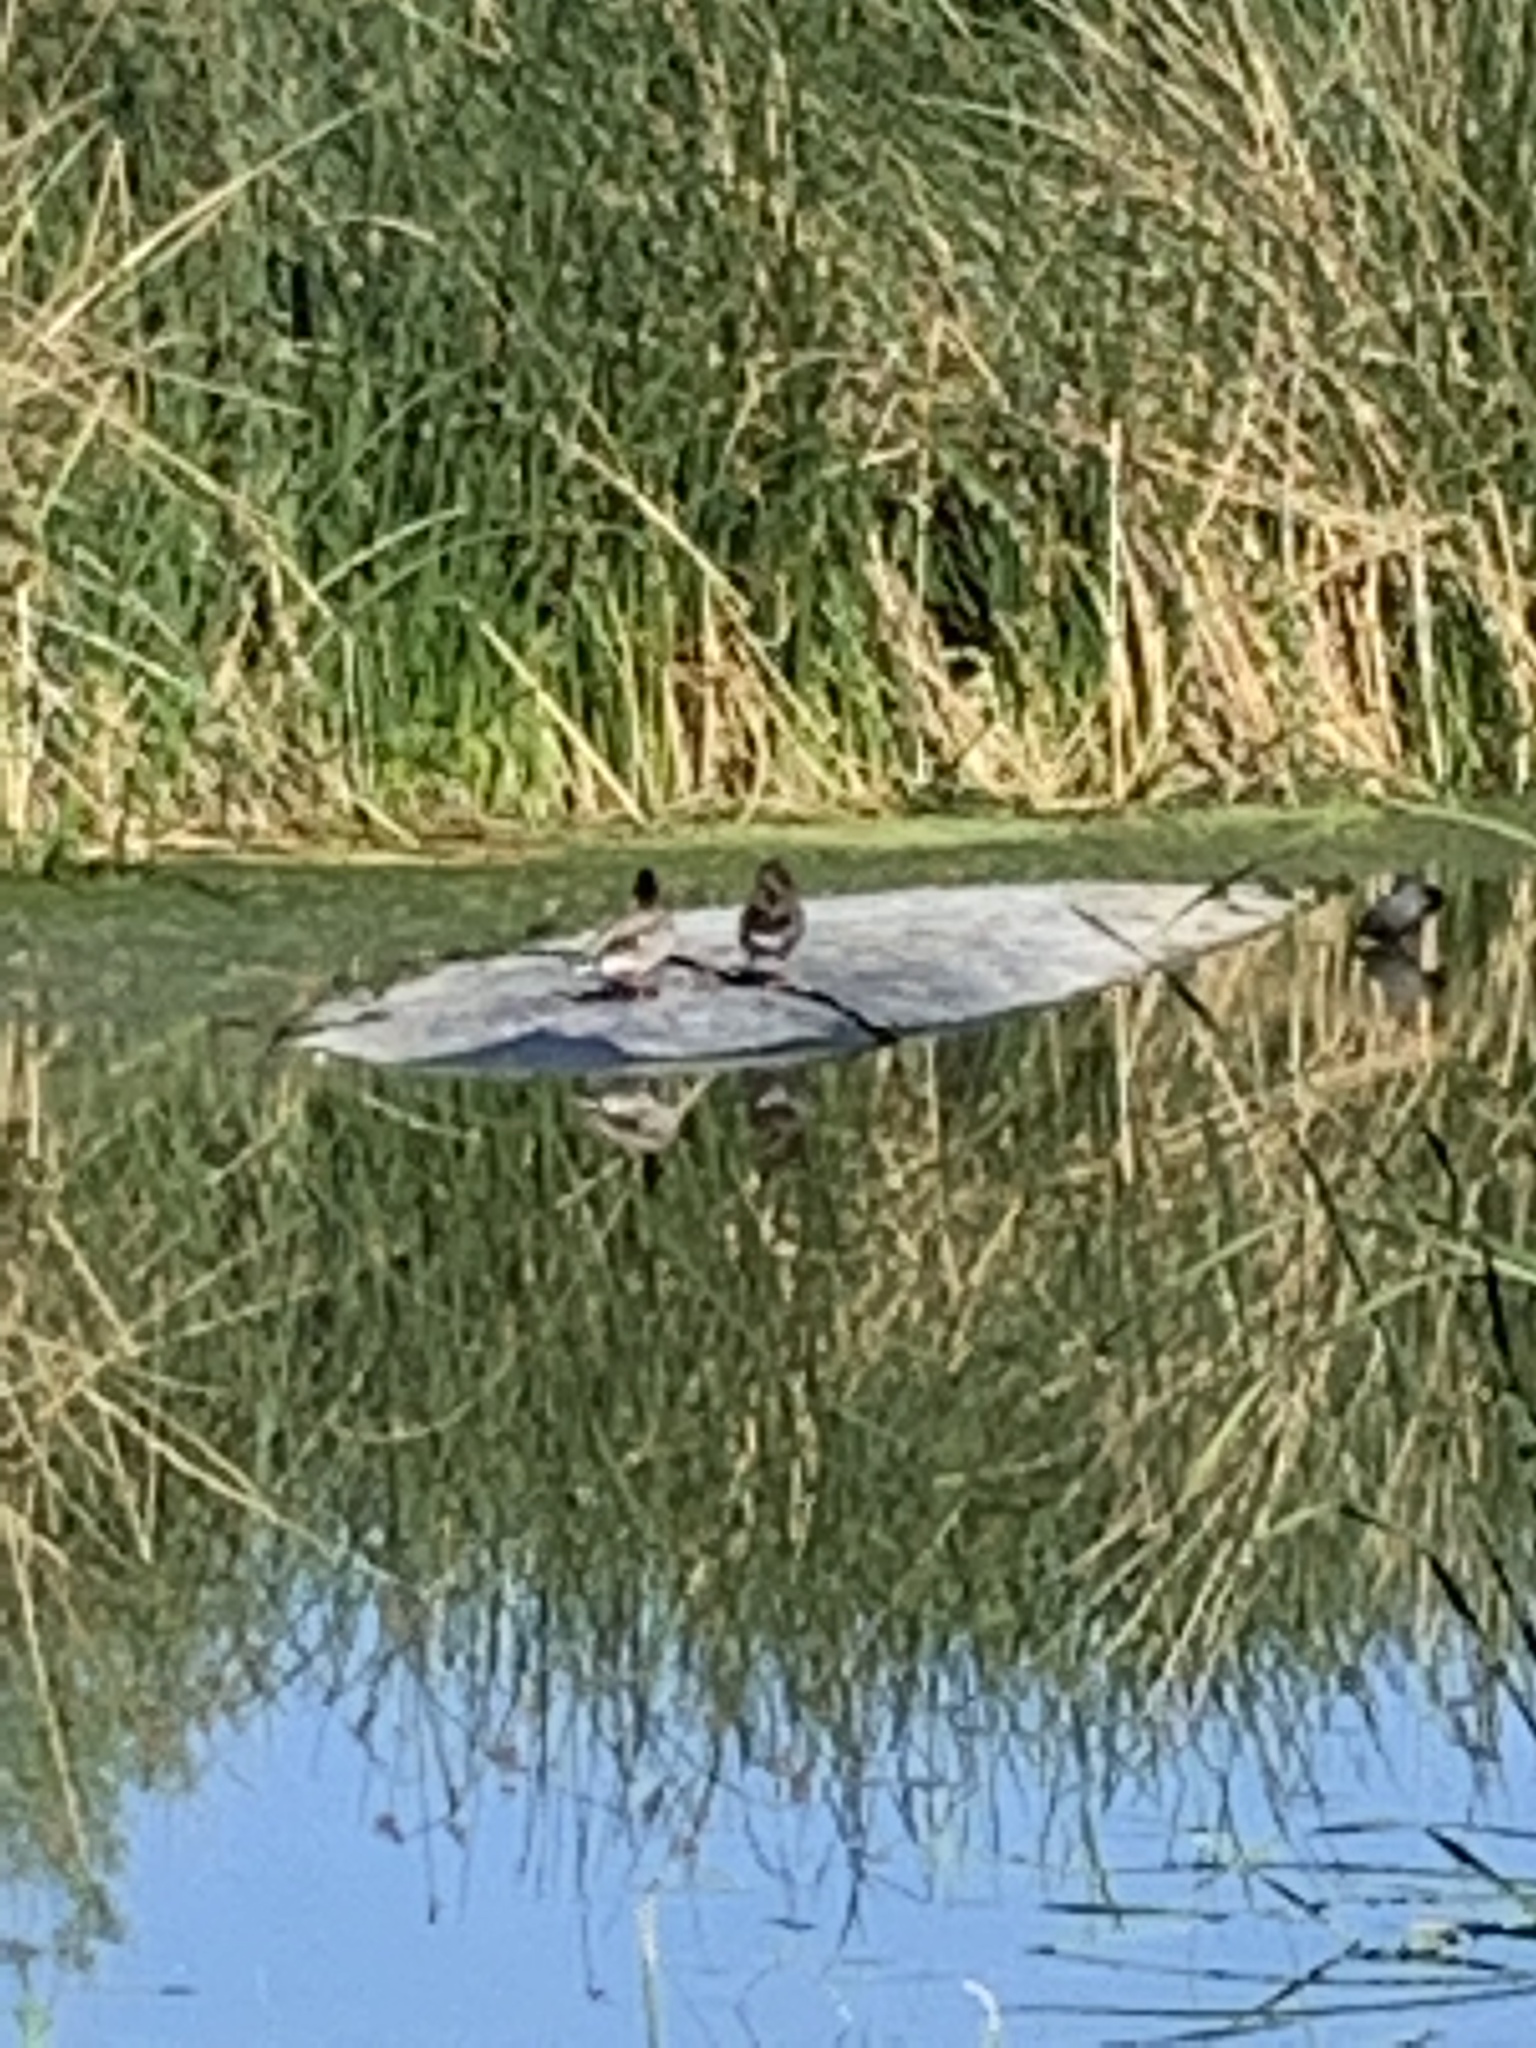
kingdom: Animalia
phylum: Chordata
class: Aves
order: Anseriformes
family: Anatidae
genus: Anas
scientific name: Anas platyrhynchos
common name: Mallard
